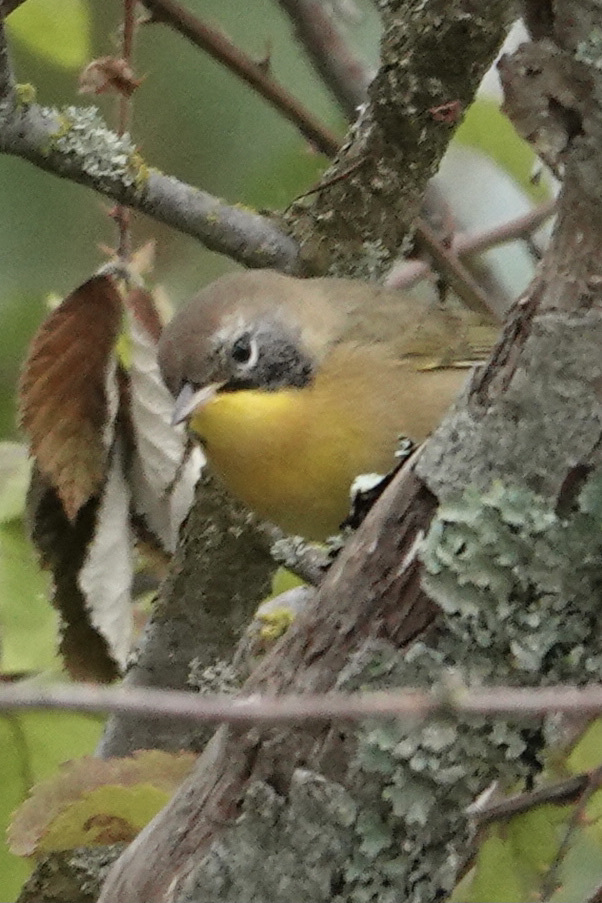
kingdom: Animalia
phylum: Chordata
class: Aves
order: Passeriformes
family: Parulidae
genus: Geothlypis
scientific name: Geothlypis trichas
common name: Common yellowthroat
